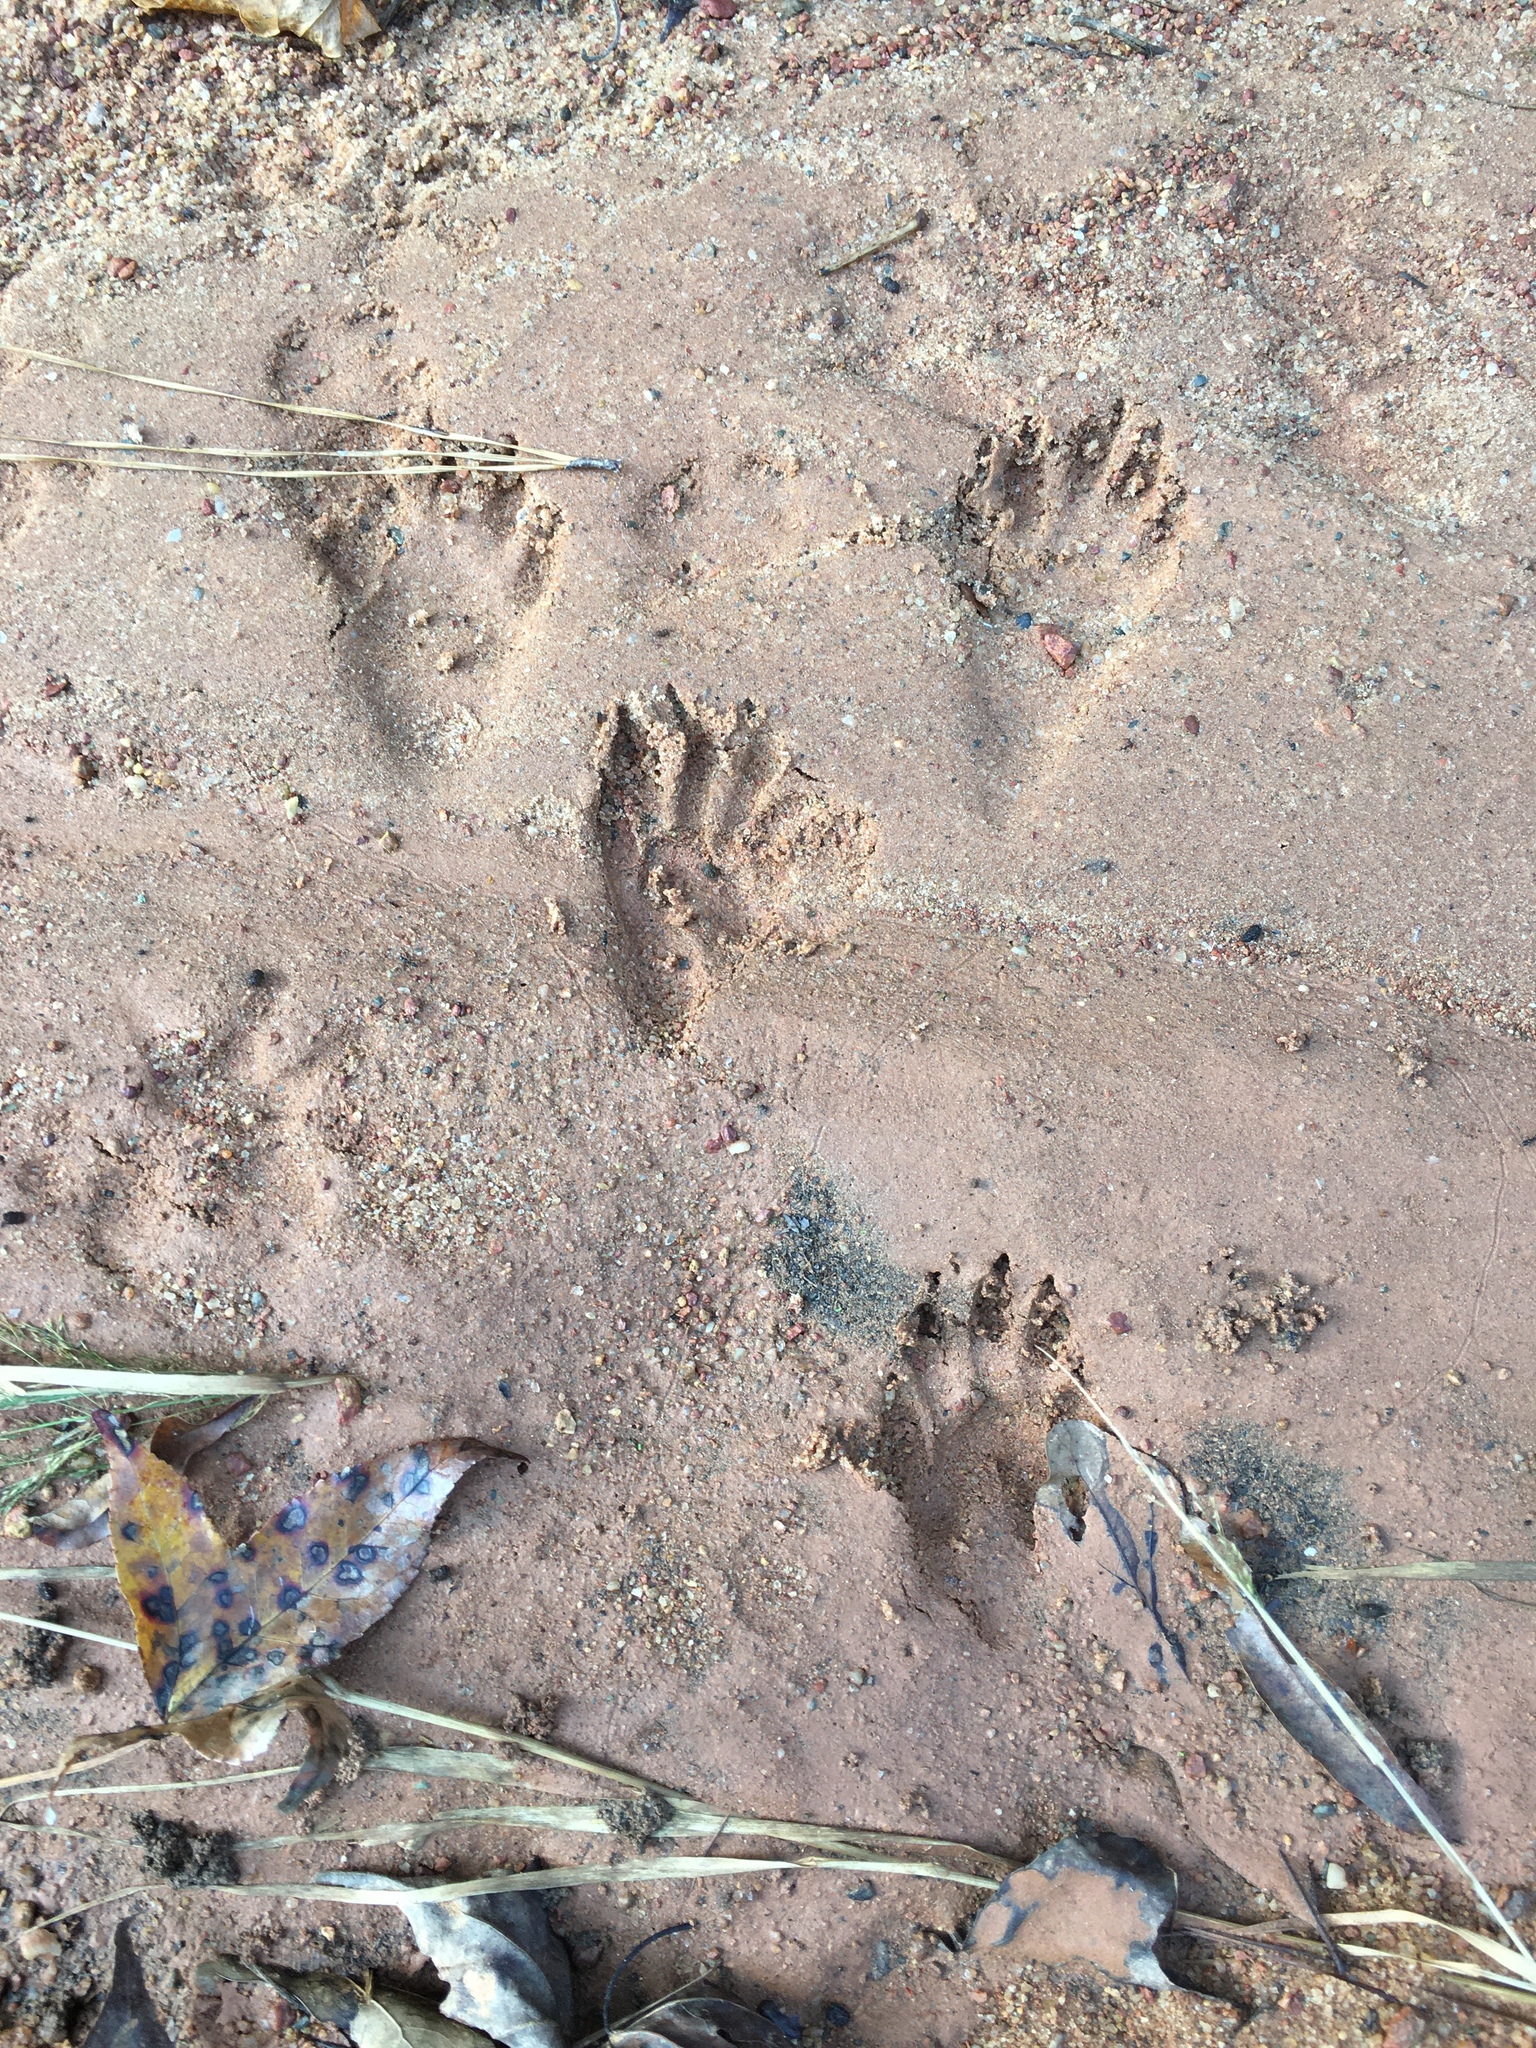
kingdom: Animalia
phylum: Chordata
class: Mammalia
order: Carnivora
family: Procyonidae
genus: Procyon
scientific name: Procyon lotor
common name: Raccoon
